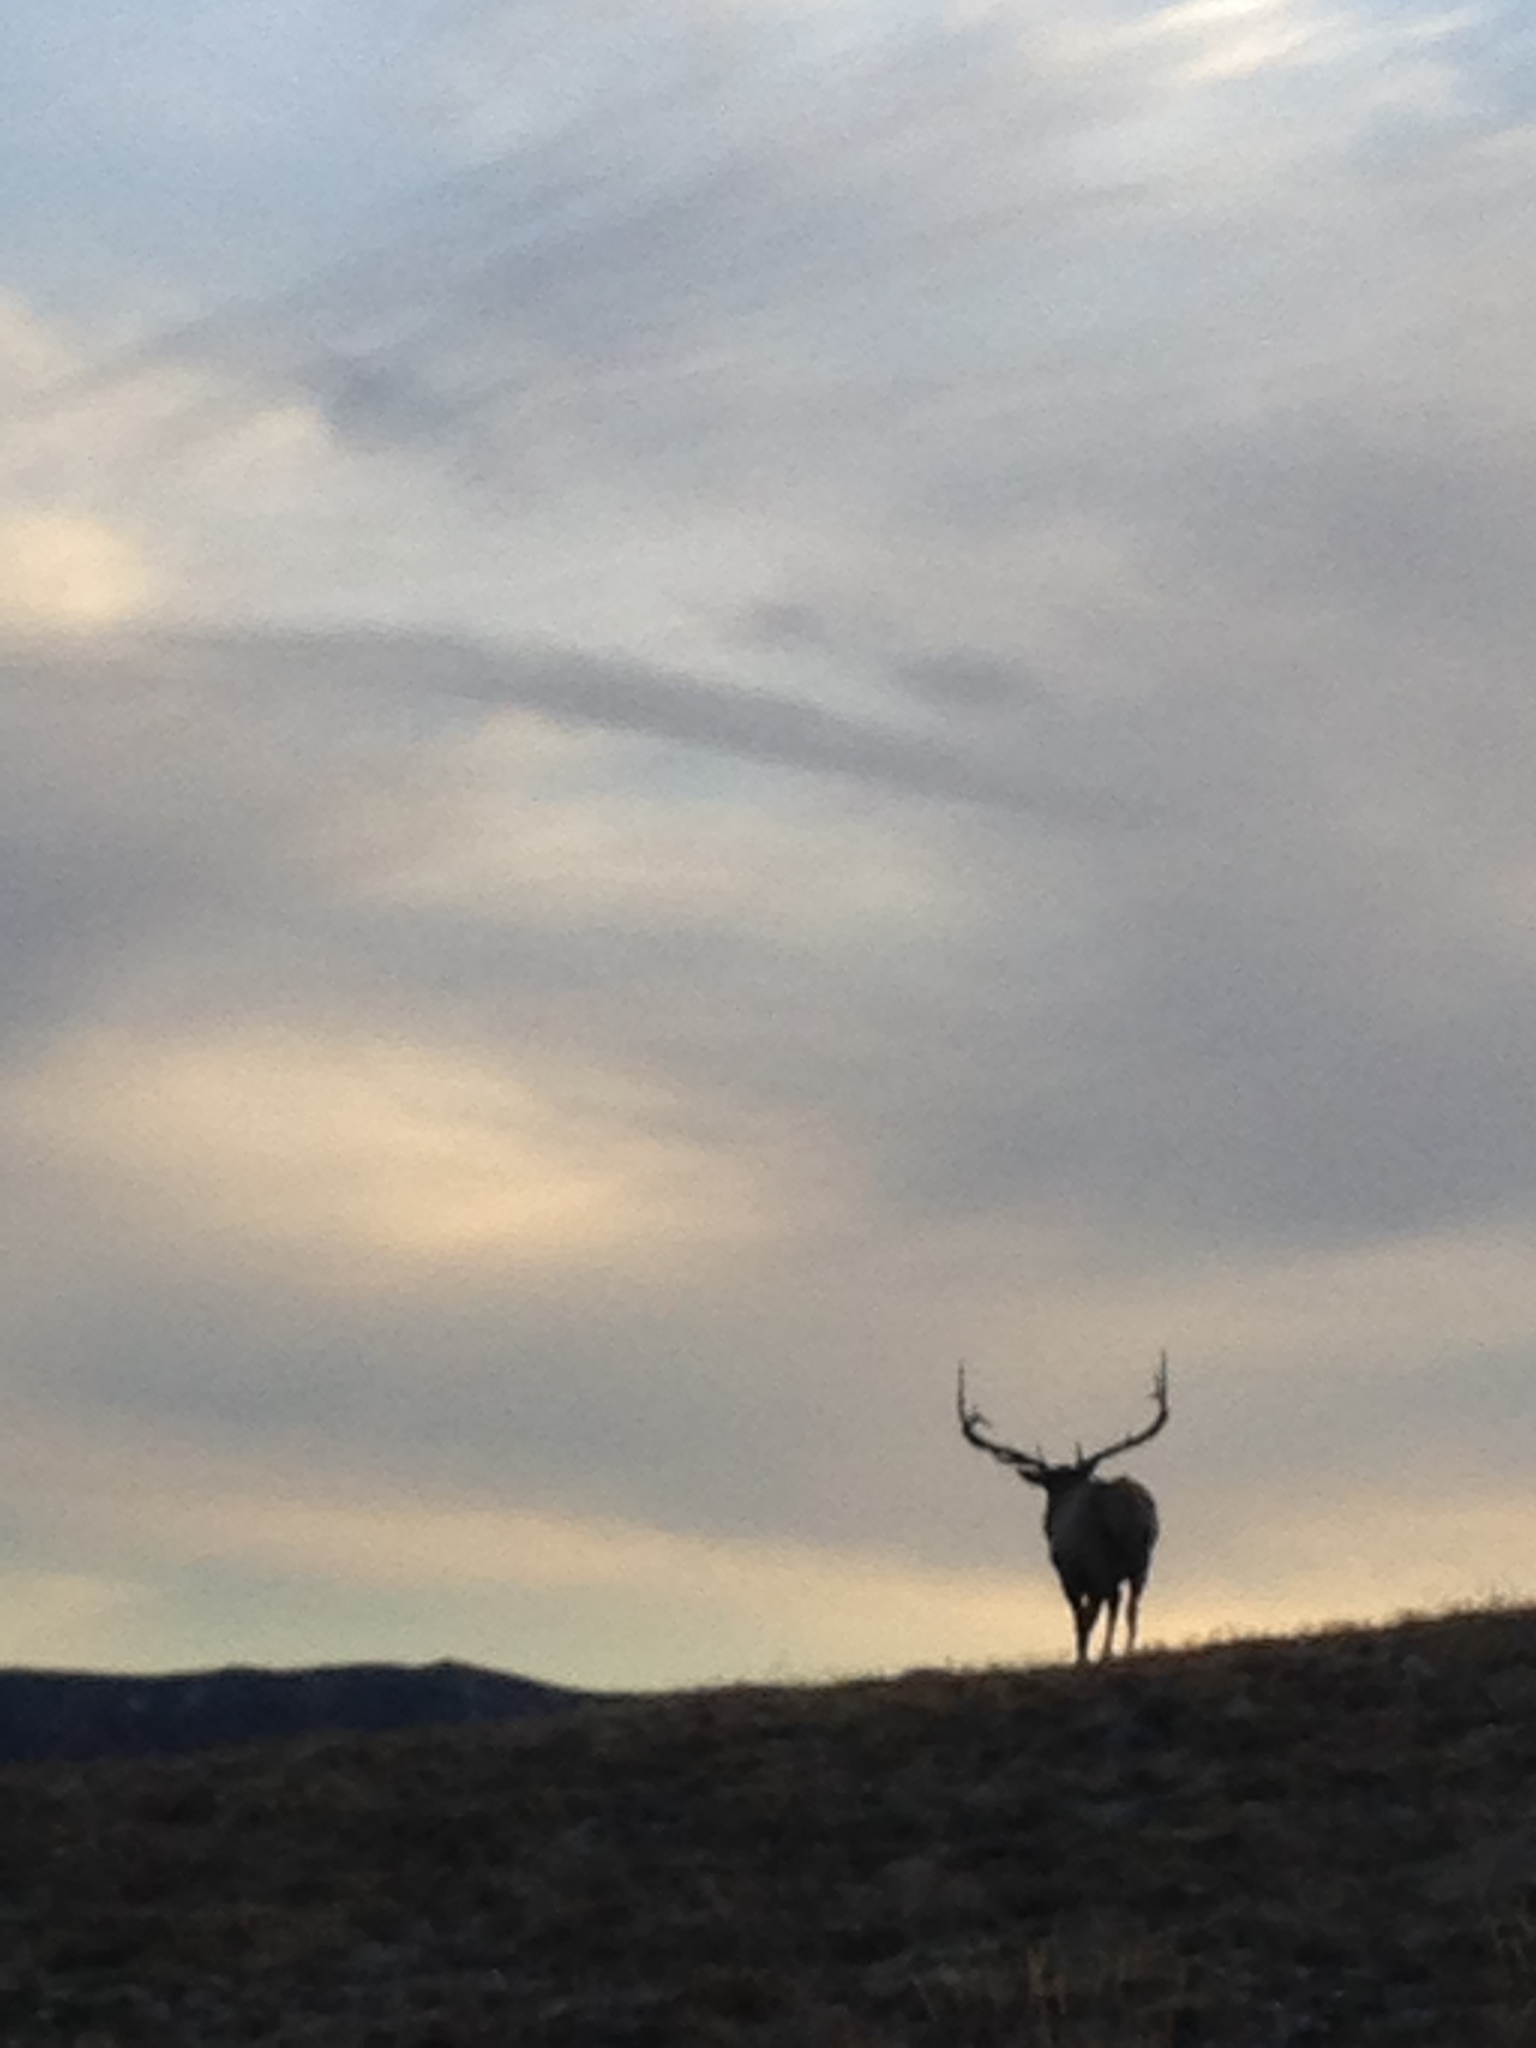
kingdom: Animalia
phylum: Chordata
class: Mammalia
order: Artiodactyla
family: Cervidae
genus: Cervus
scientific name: Cervus elaphus
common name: Red deer
